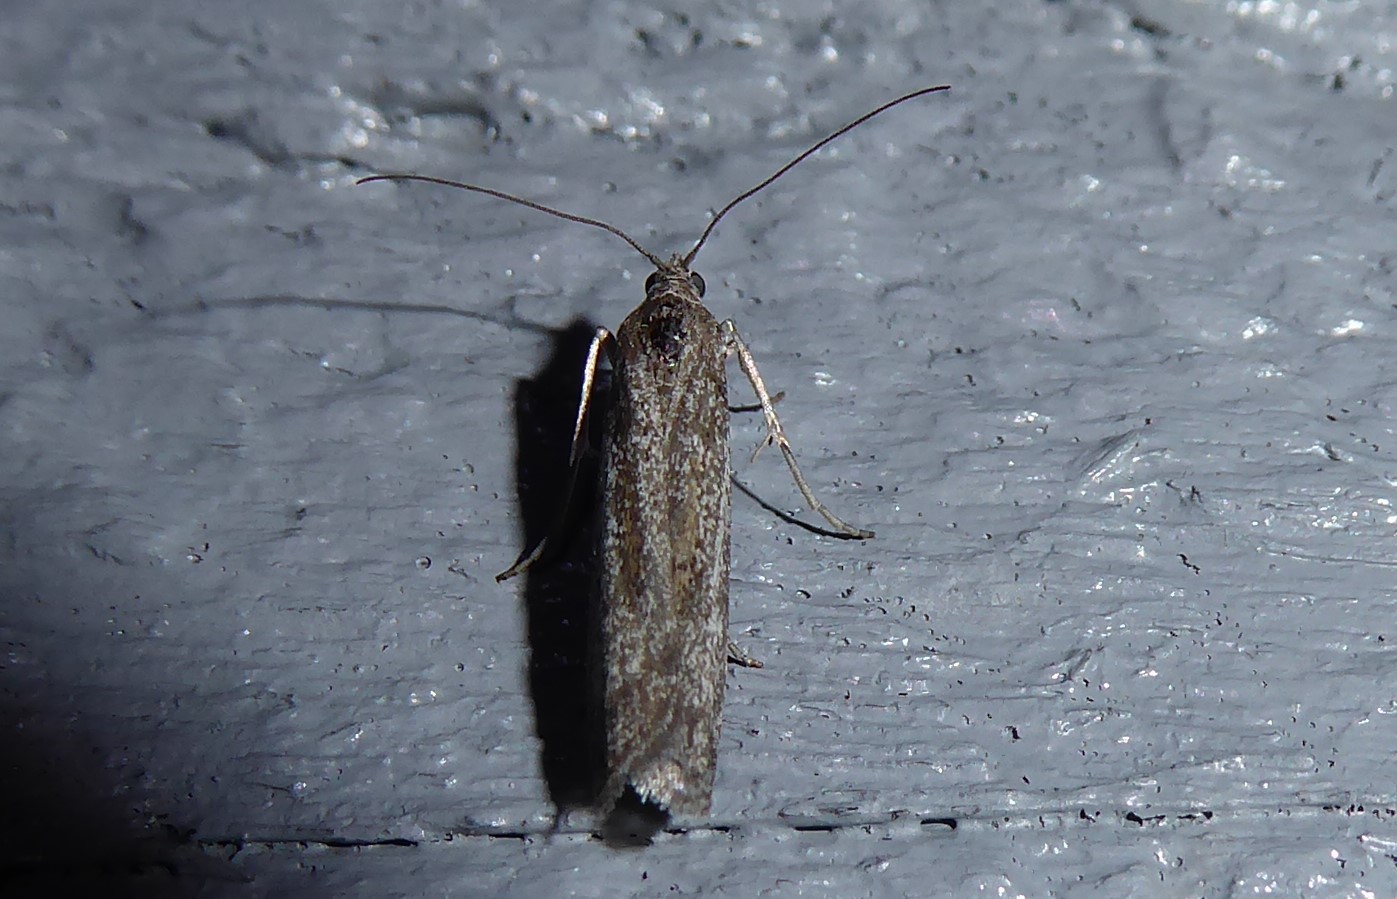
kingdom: Animalia
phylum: Arthropoda
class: Insecta
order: Lepidoptera
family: Pyralidae
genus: Homoeosoma
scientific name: Homoeosoma anaspila
